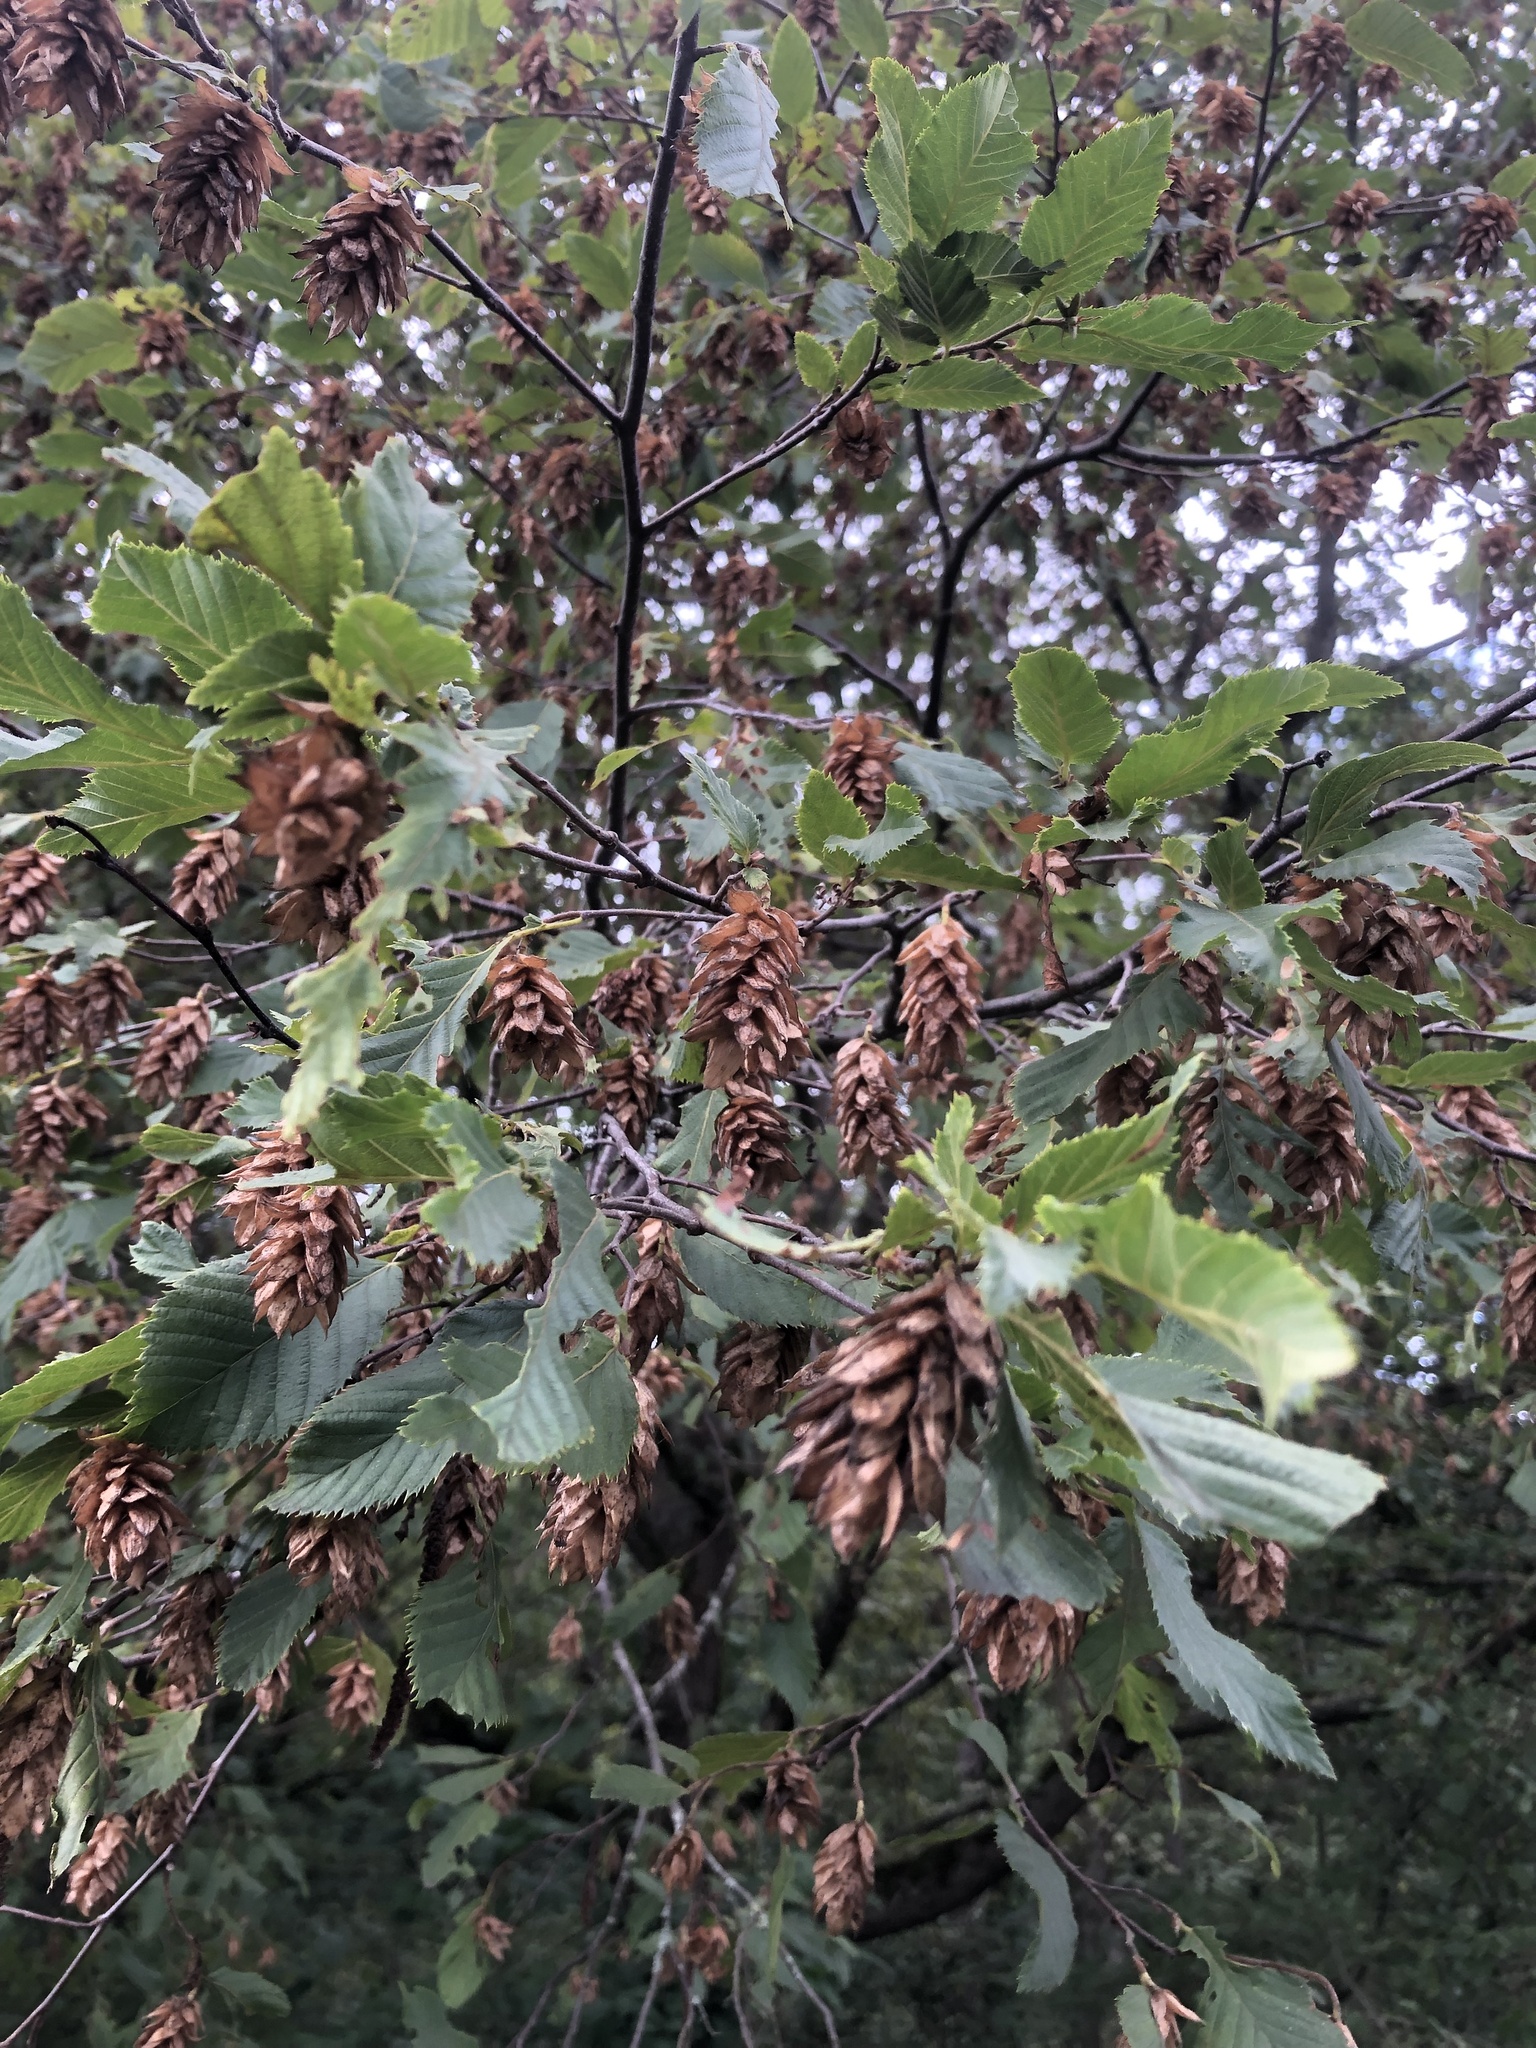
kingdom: Plantae
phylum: Tracheophyta
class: Magnoliopsida
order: Fagales
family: Betulaceae
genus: Ostrya
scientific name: Ostrya carpinifolia
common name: European hop-hornbeam
